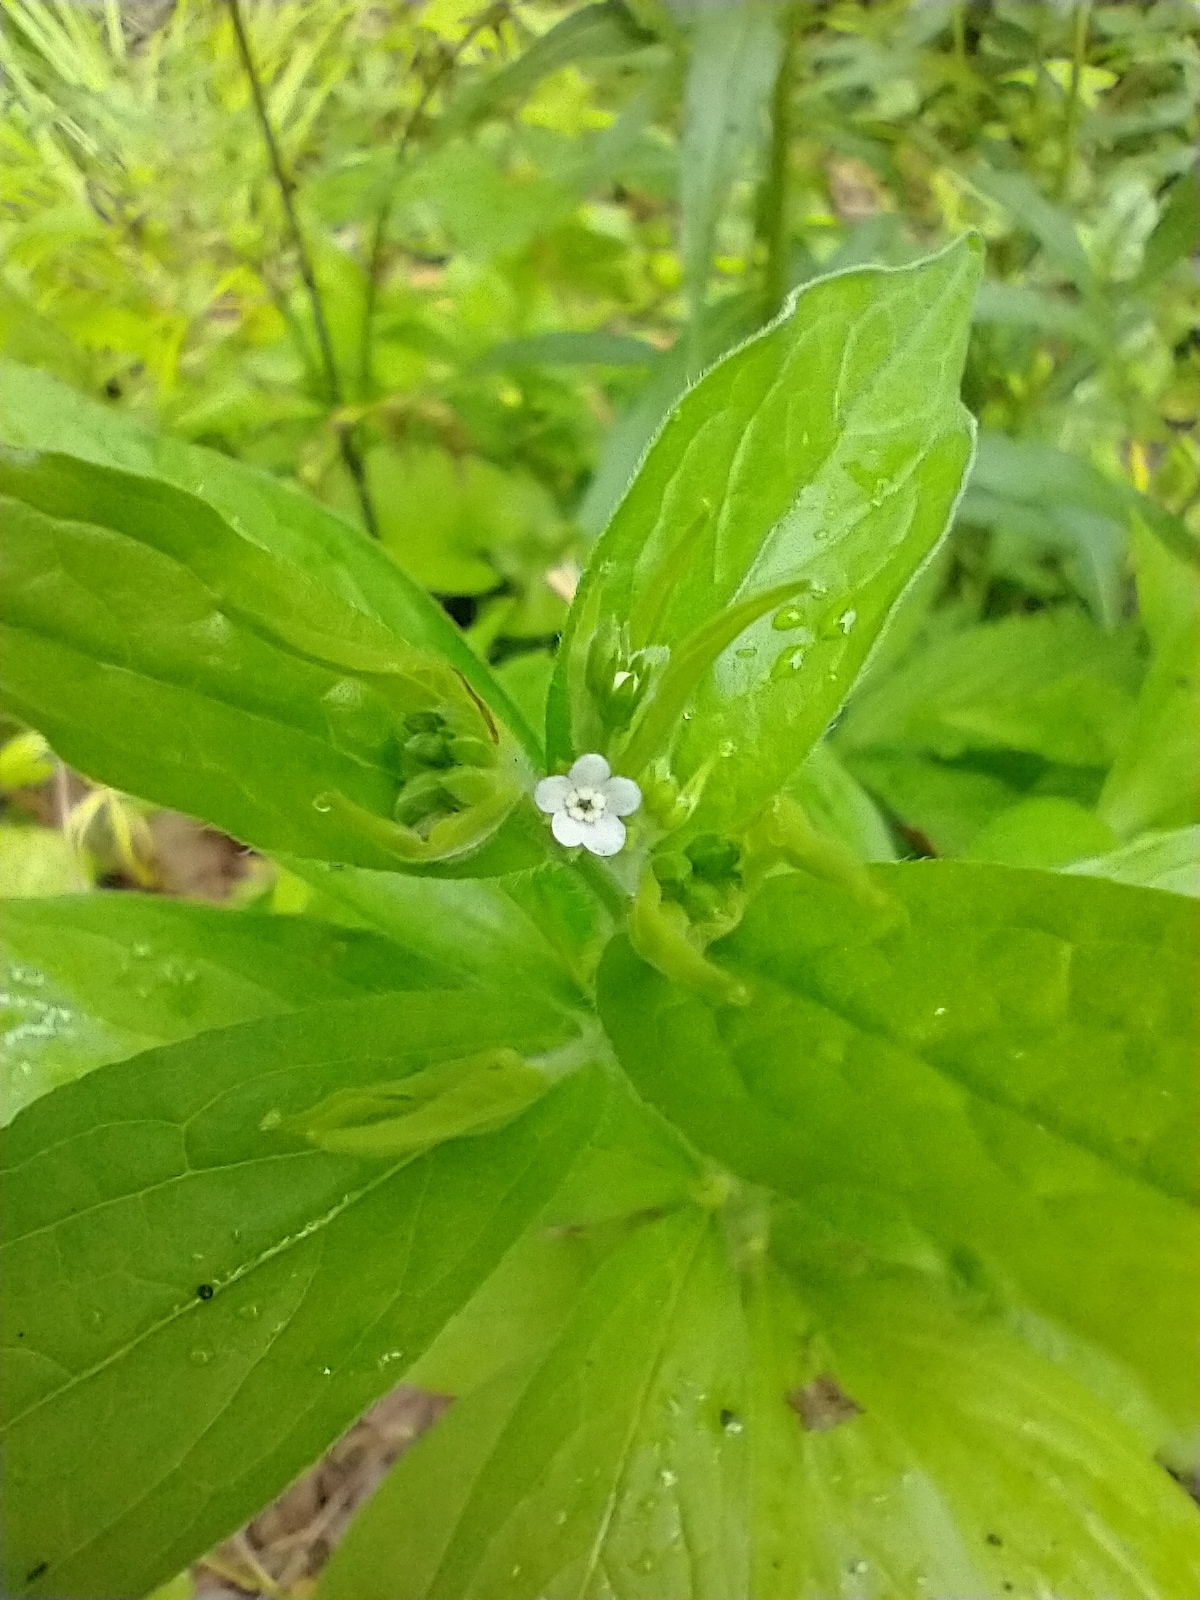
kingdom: Plantae
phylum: Tracheophyta
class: Magnoliopsida
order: Boraginales
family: Boraginaceae
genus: Hackelia
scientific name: Hackelia virginiana
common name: Beggar's-lice
